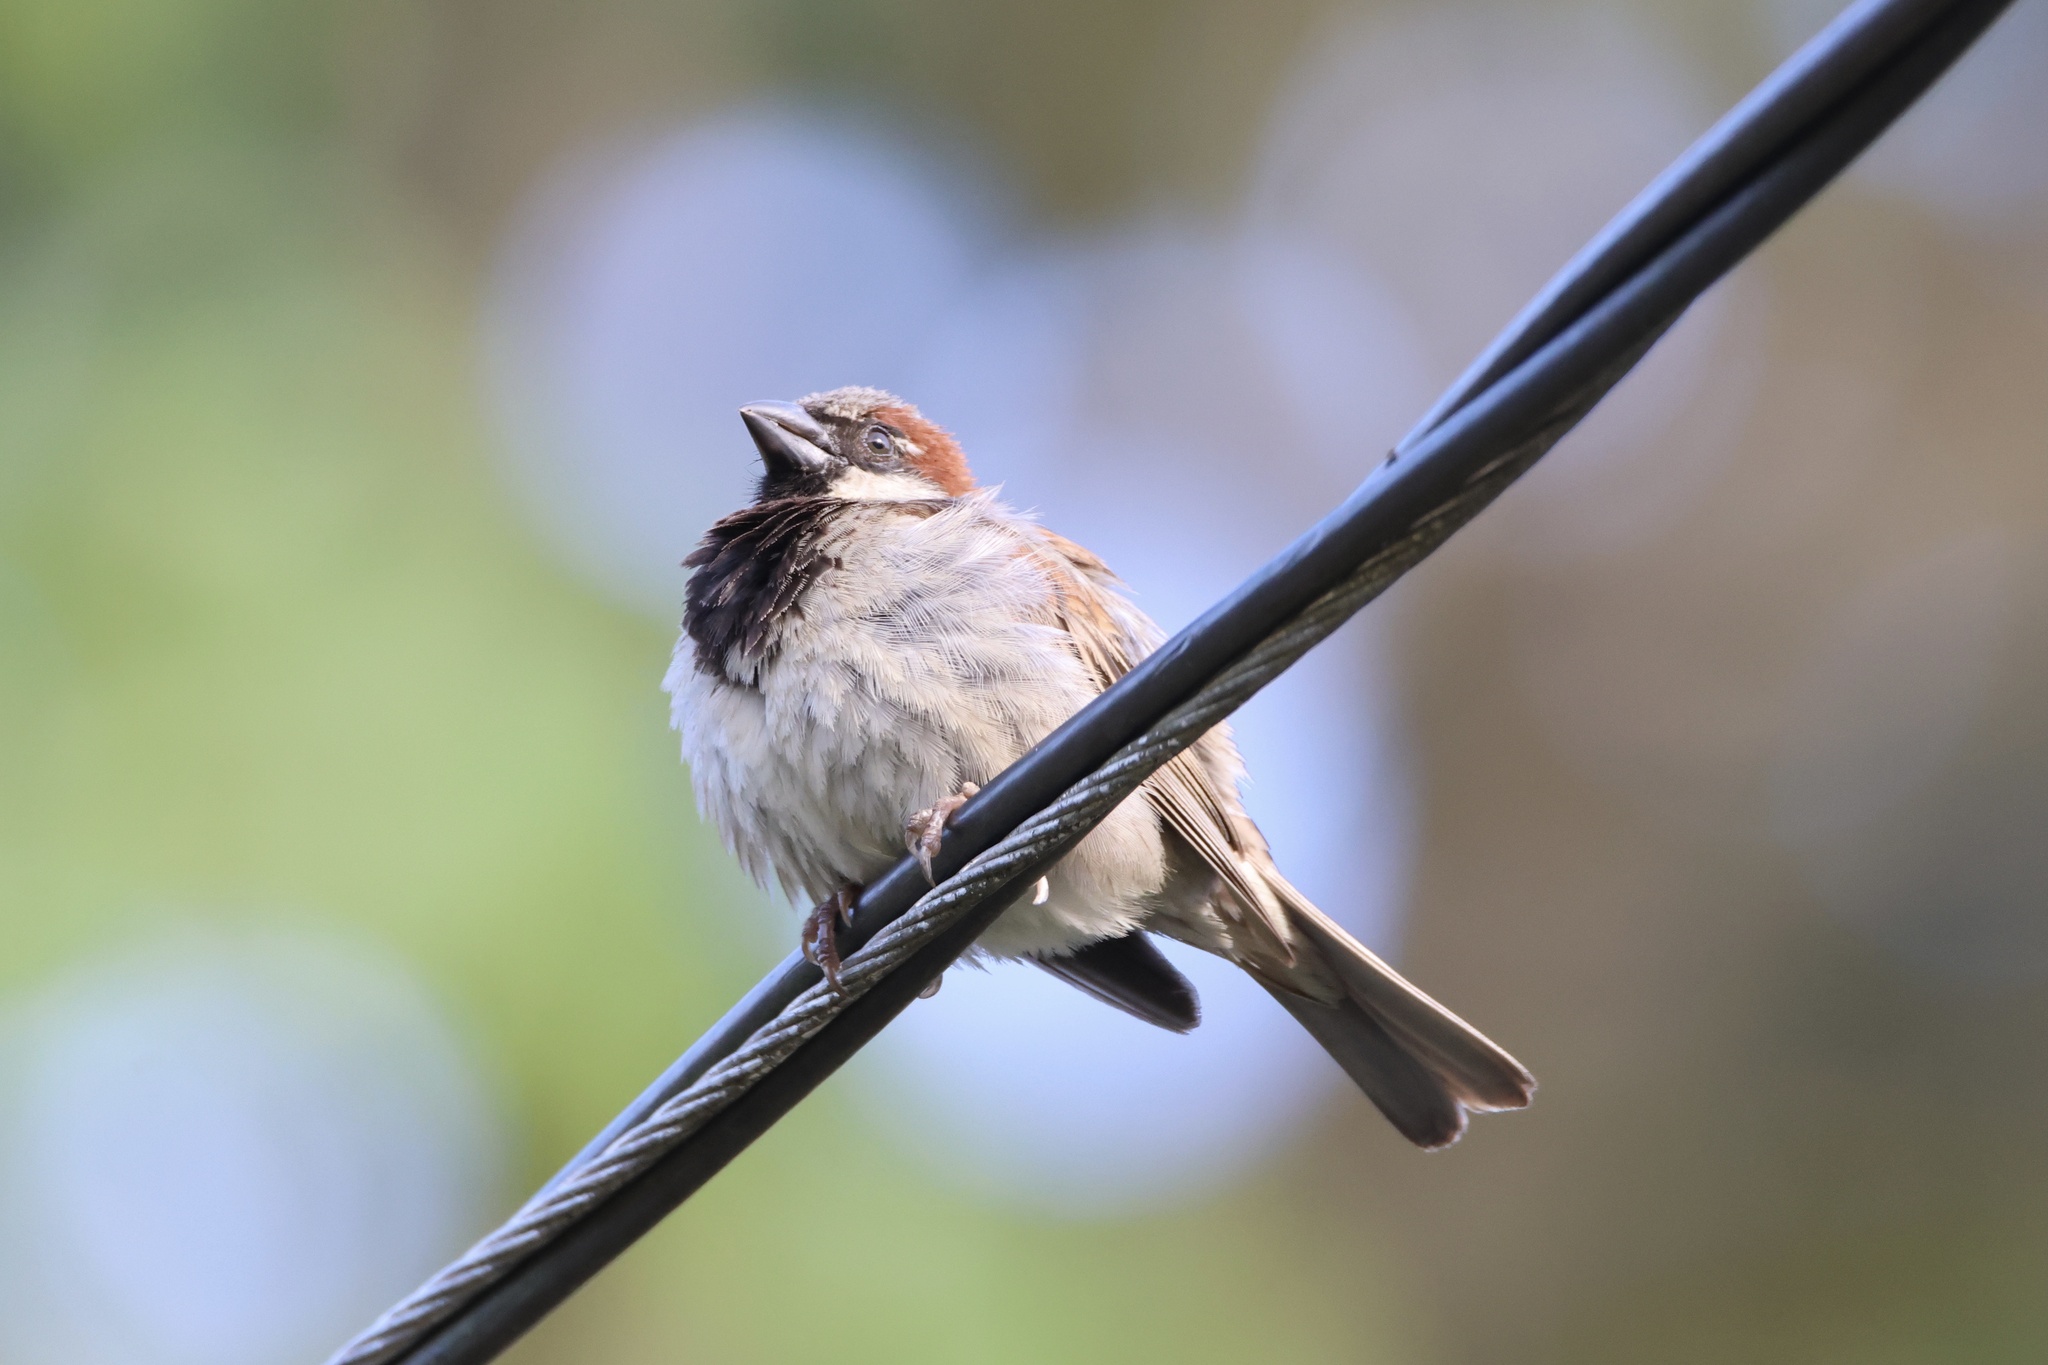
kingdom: Animalia
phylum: Chordata
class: Aves
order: Passeriformes
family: Passeridae
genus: Passer
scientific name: Passer domesticus
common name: House sparrow
